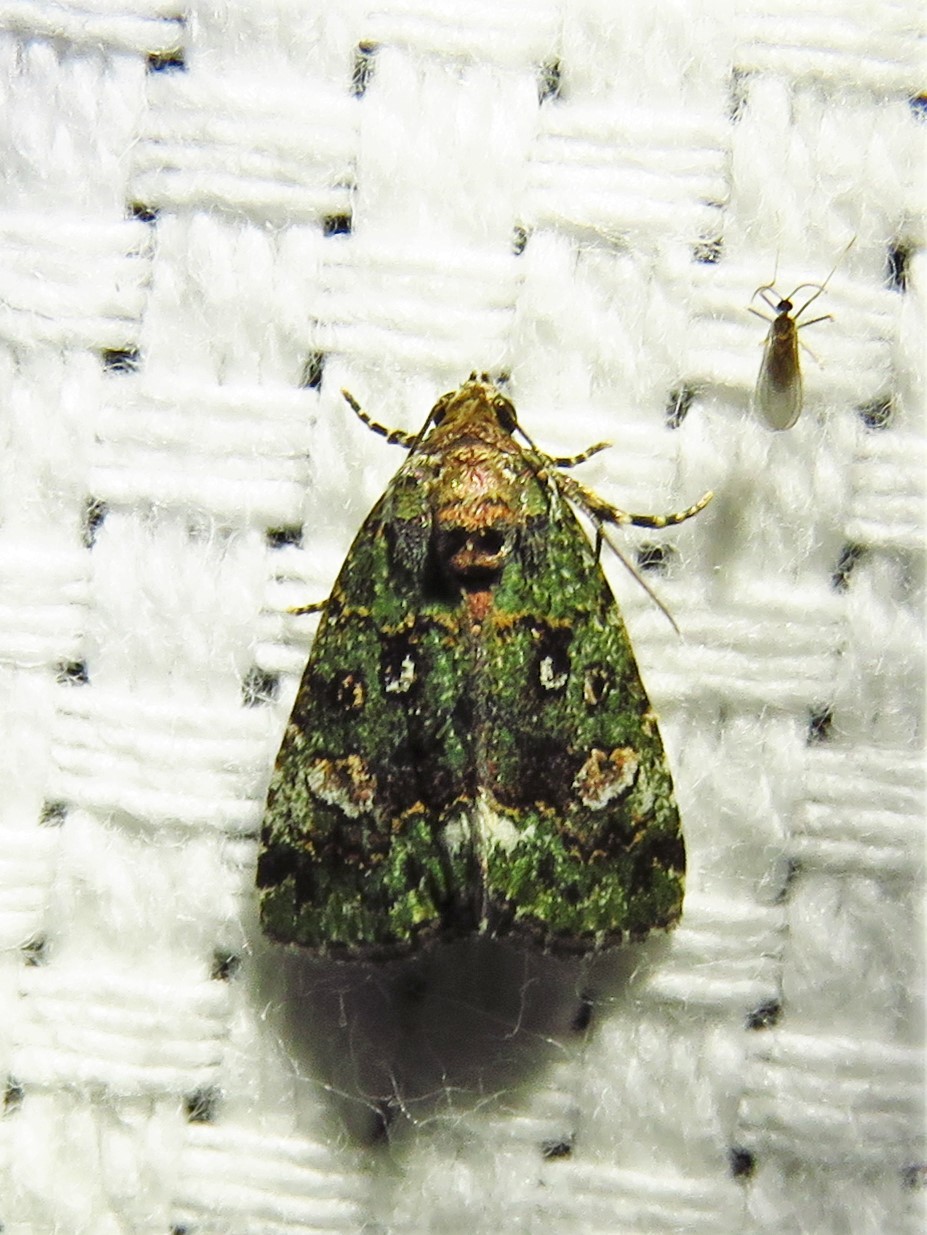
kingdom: Animalia
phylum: Arthropoda
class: Insecta
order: Lepidoptera
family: Noctuidae
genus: Lithacodia
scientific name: Lithacodia musta
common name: Small mossy glyph
